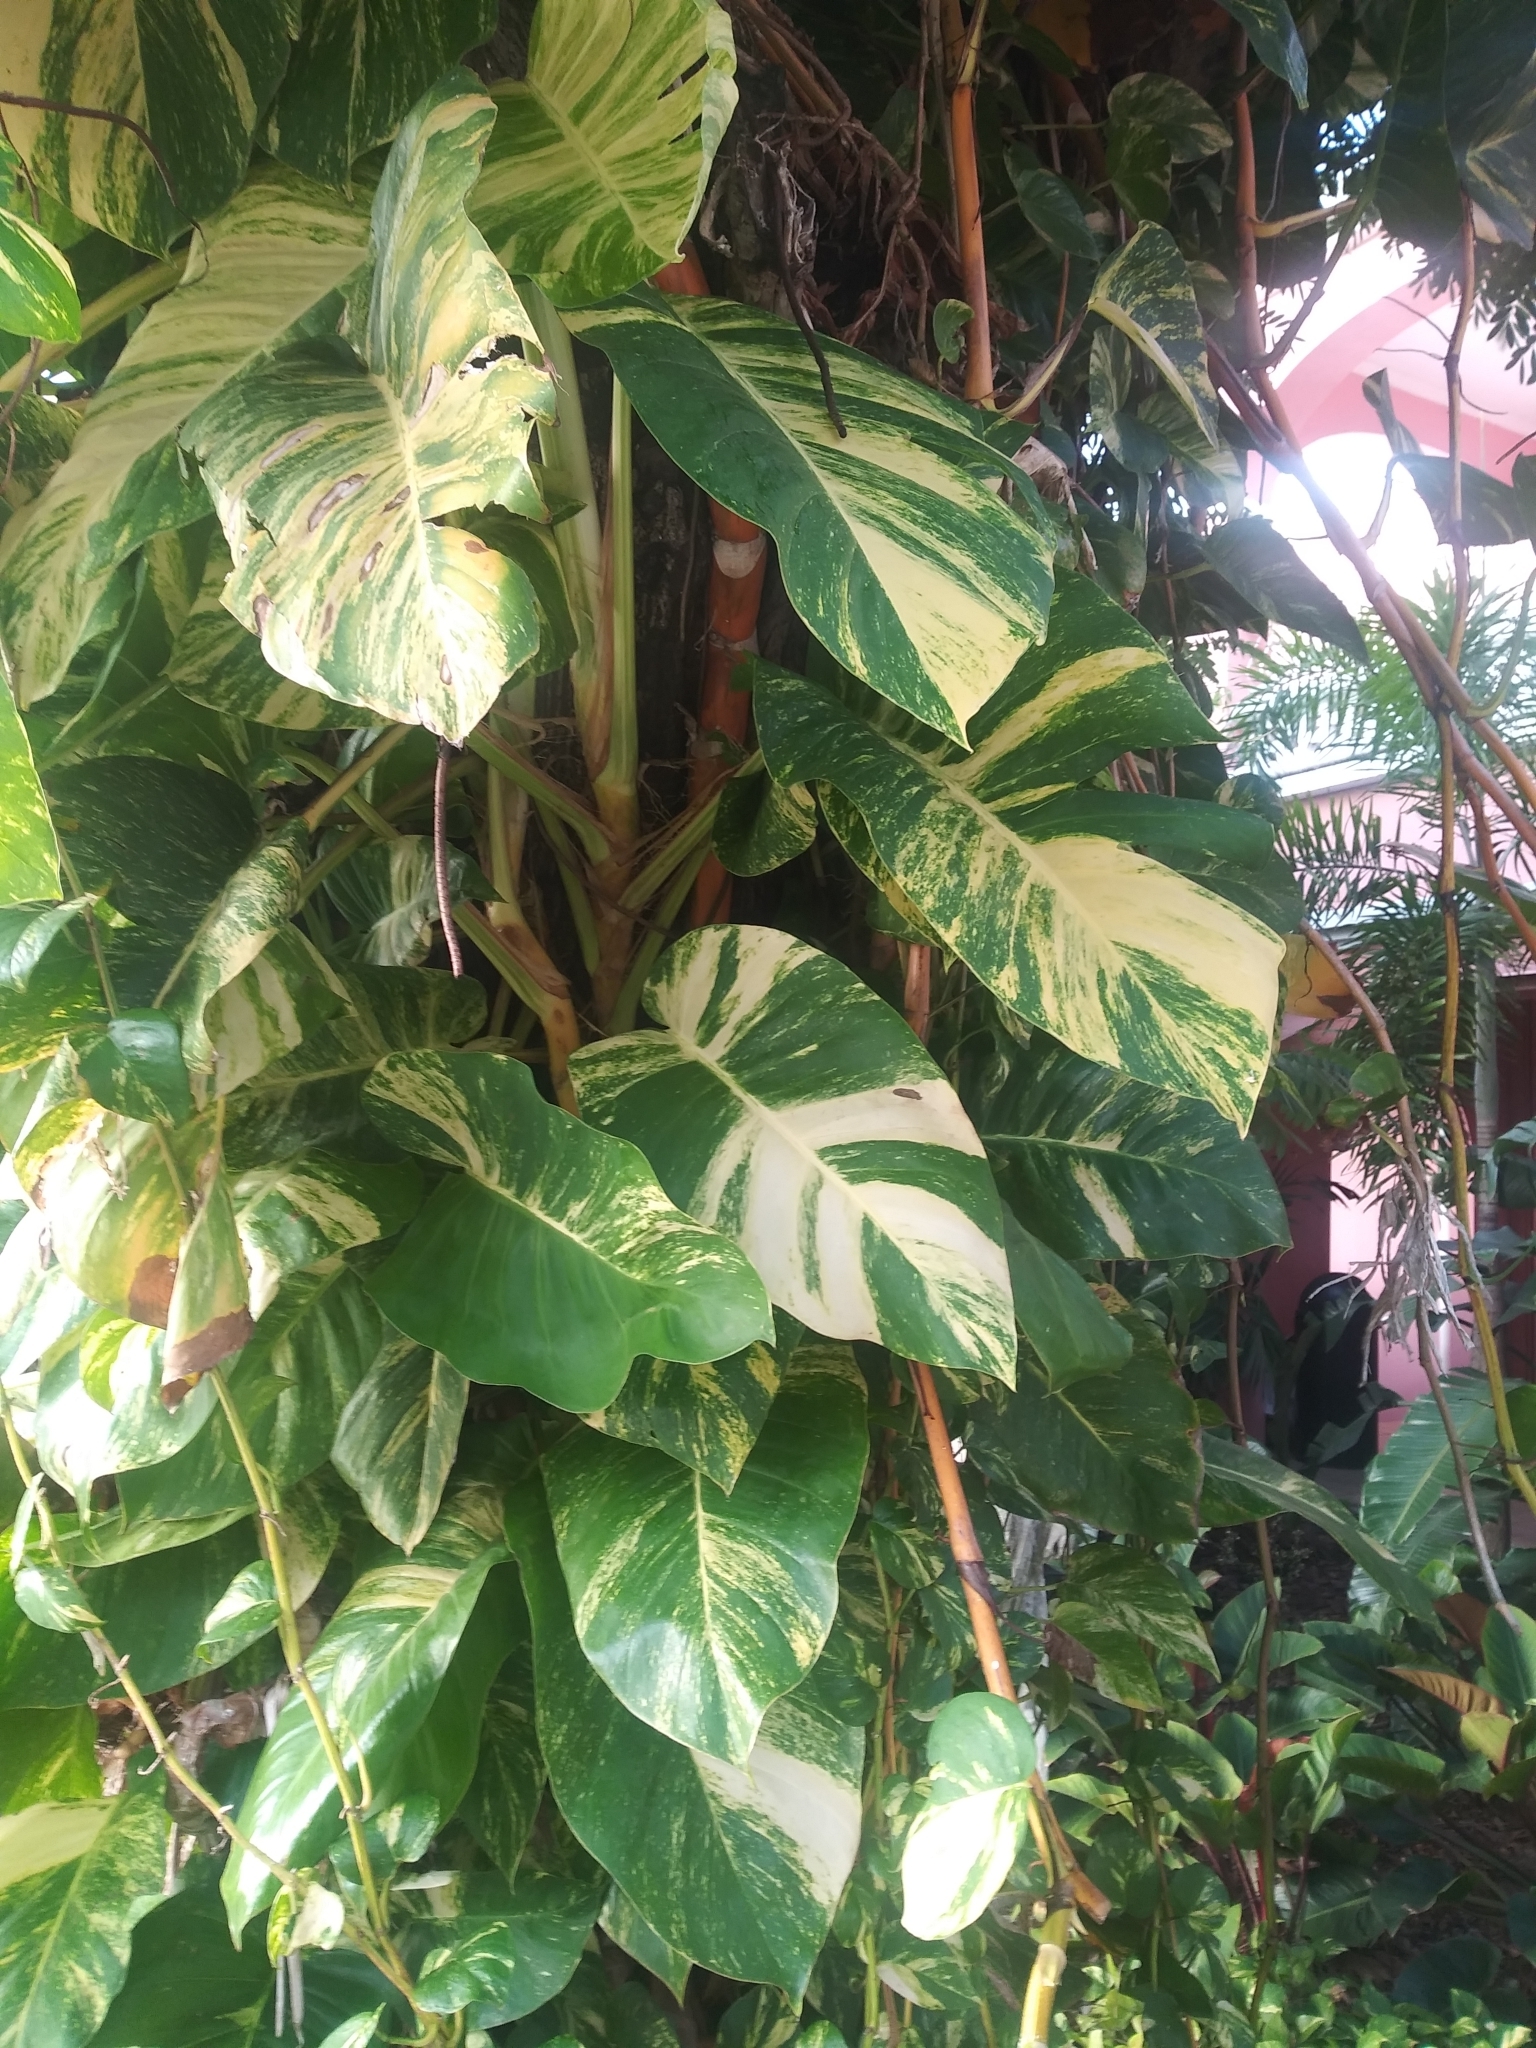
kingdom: Plantae
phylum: Tracheophyta
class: Liliopsida
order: Alismatales
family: Araceae
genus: Epipremnum
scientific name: Epipremnum aureum
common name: Golden hunter's-robe
